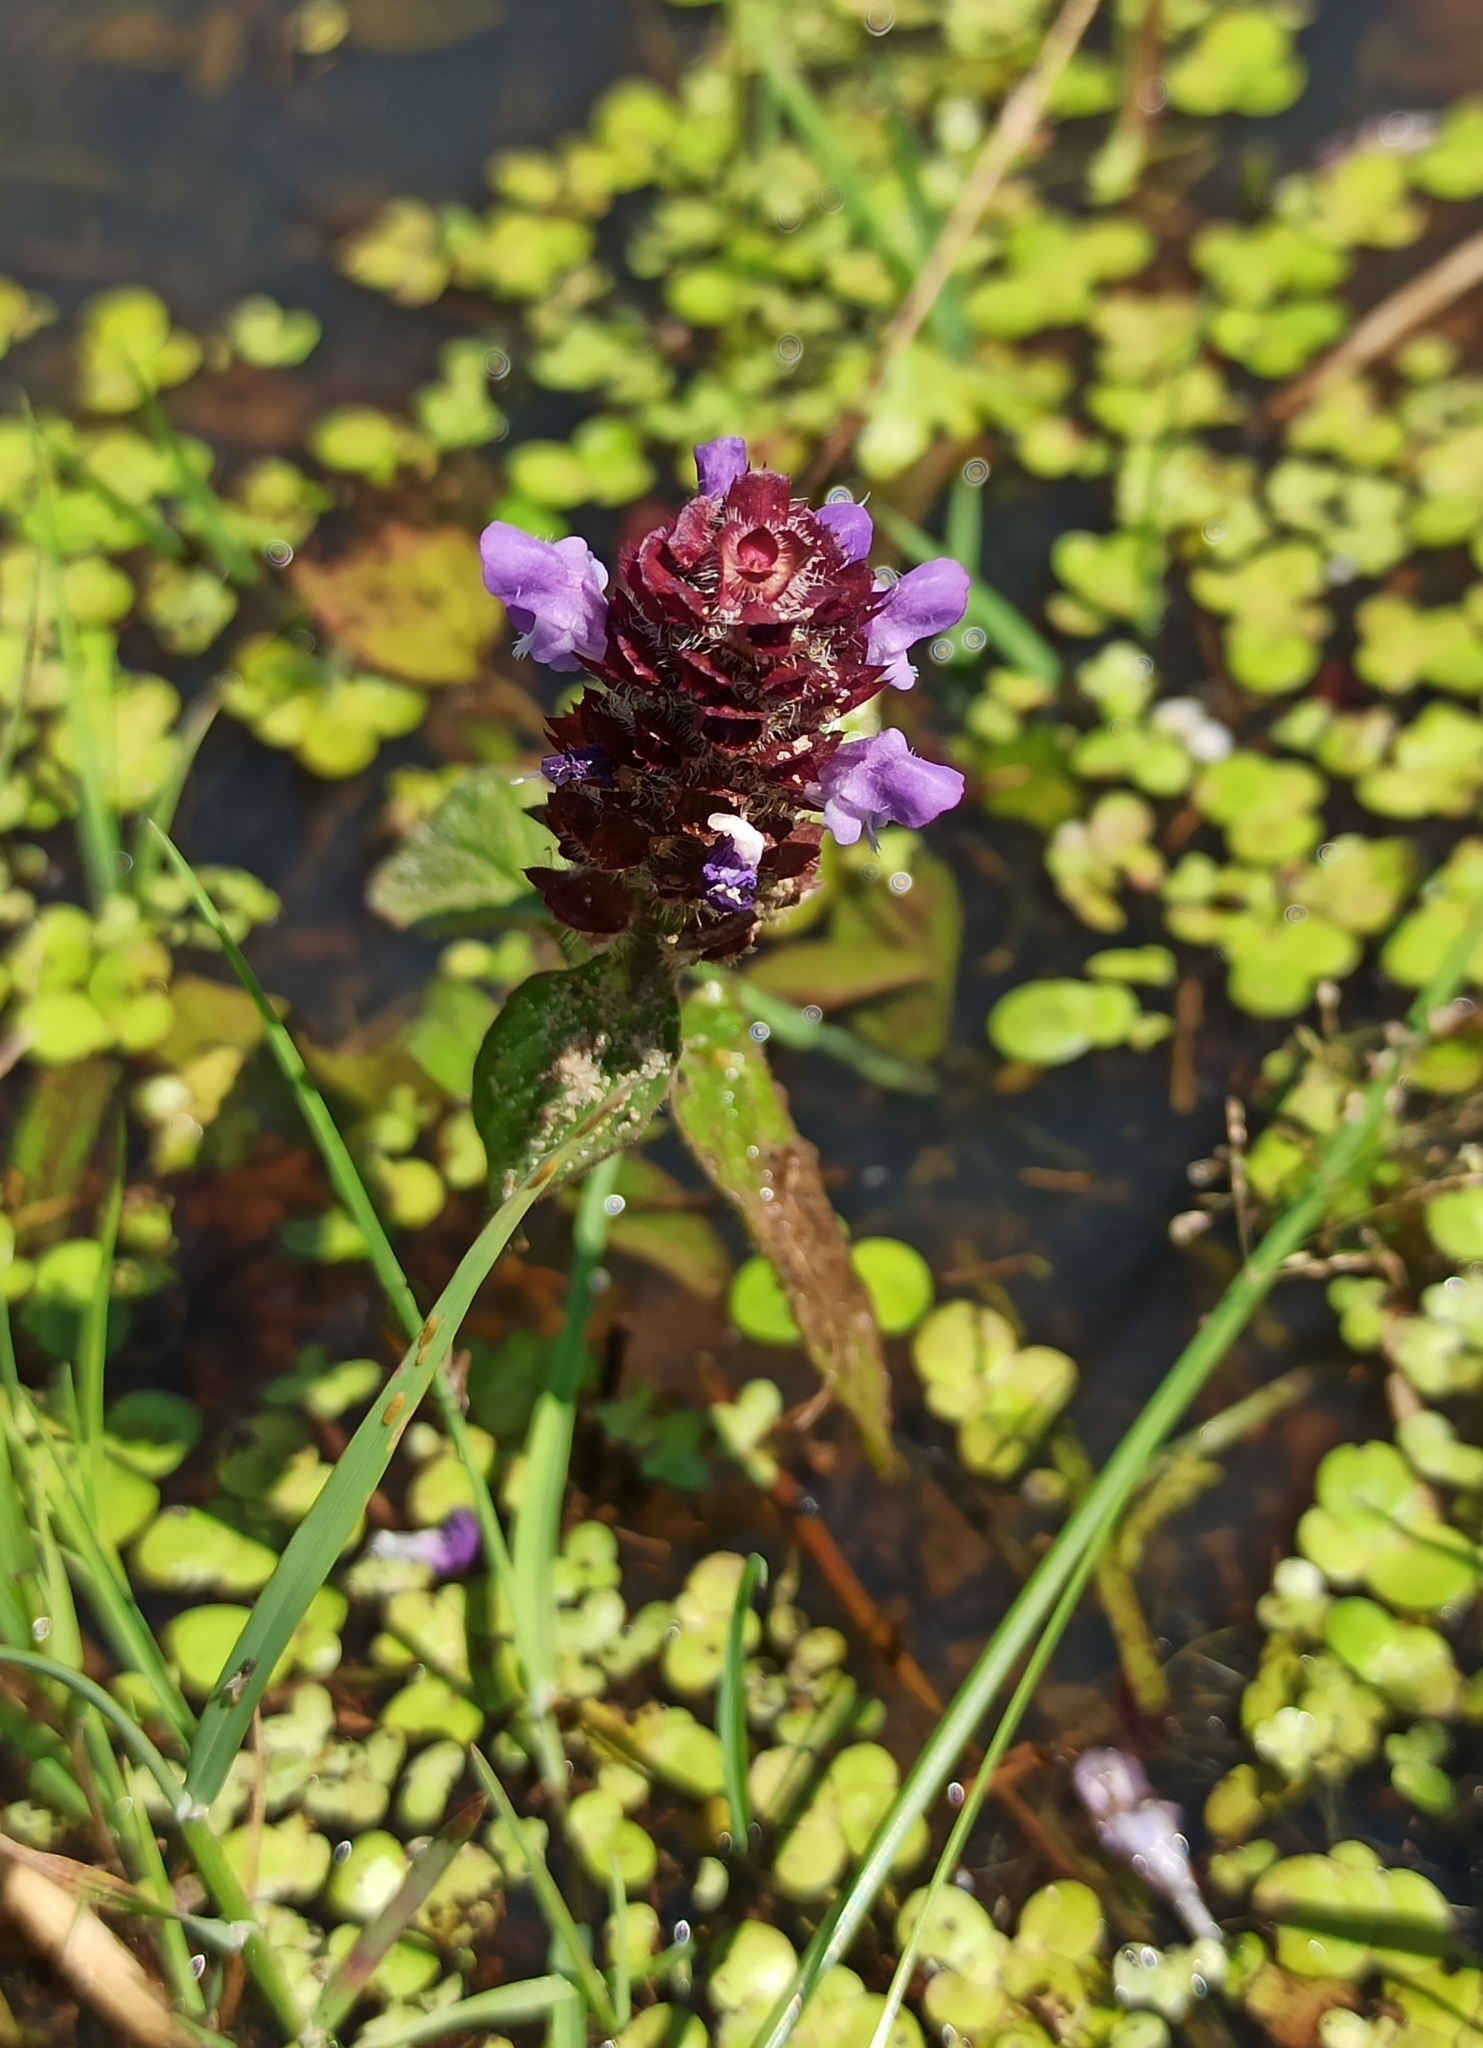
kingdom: Plantae
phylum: Tracheophyta
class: Magnoliopsida
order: Lamiales
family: Lamiaceae
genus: Prunella
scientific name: Prunella vulgaris
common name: Heal-all
